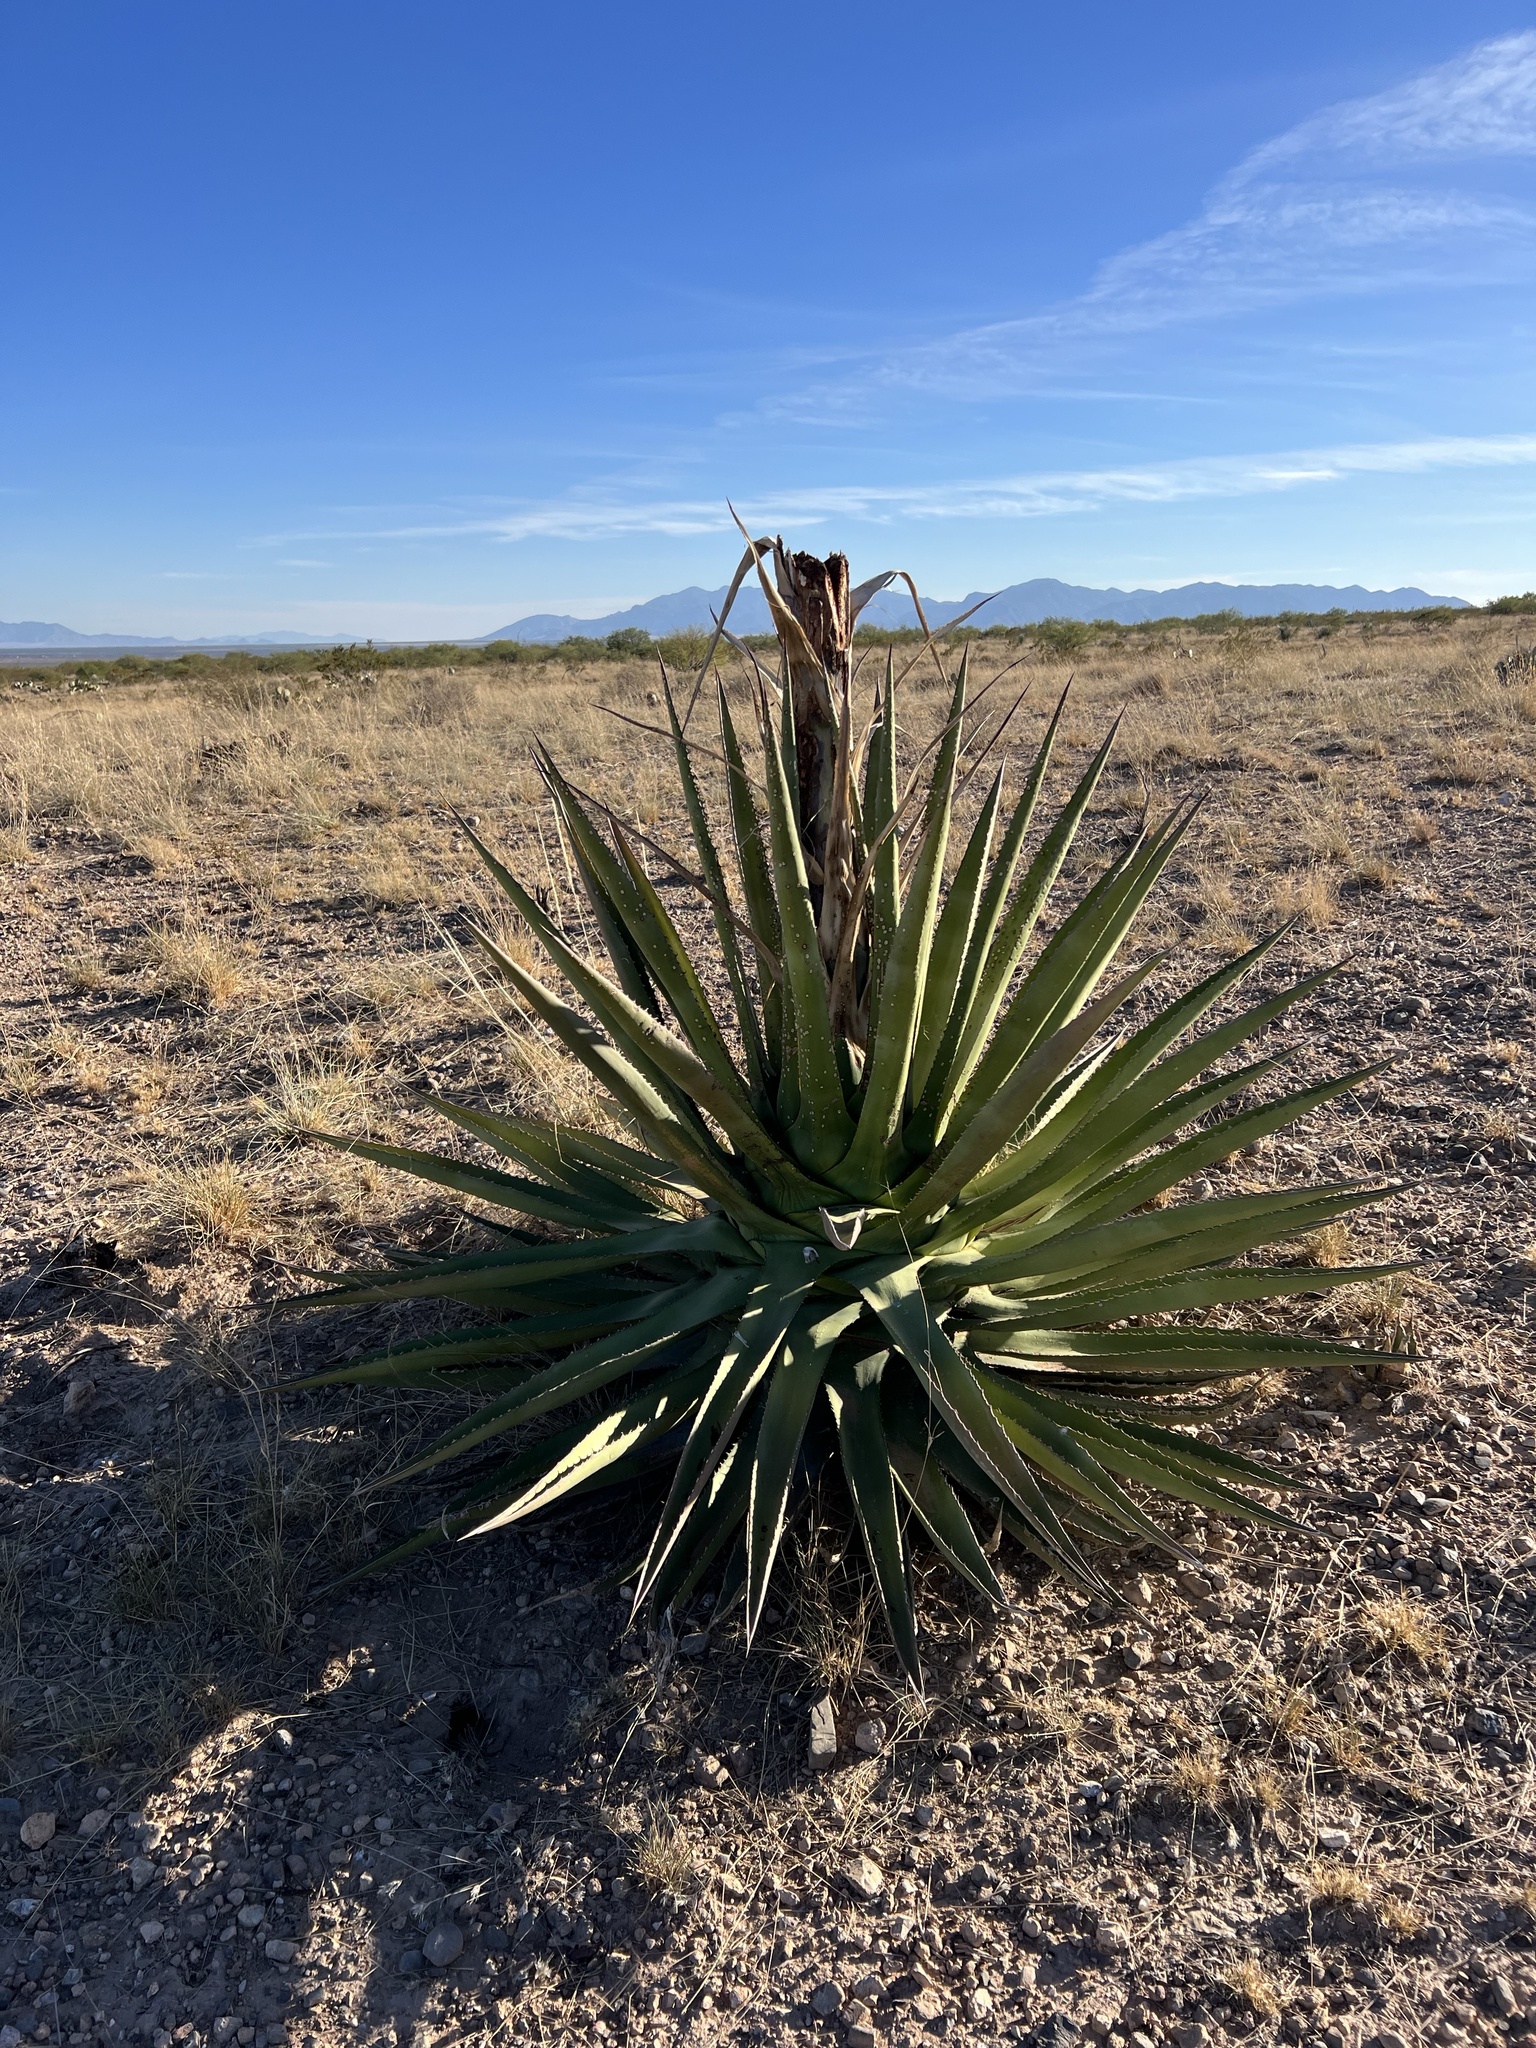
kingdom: Plantae
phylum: Tracheophyta
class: Liliopsida
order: Asparagales
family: Asparagaceae
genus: Agave
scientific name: Agave palmeri
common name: Palmer agave
